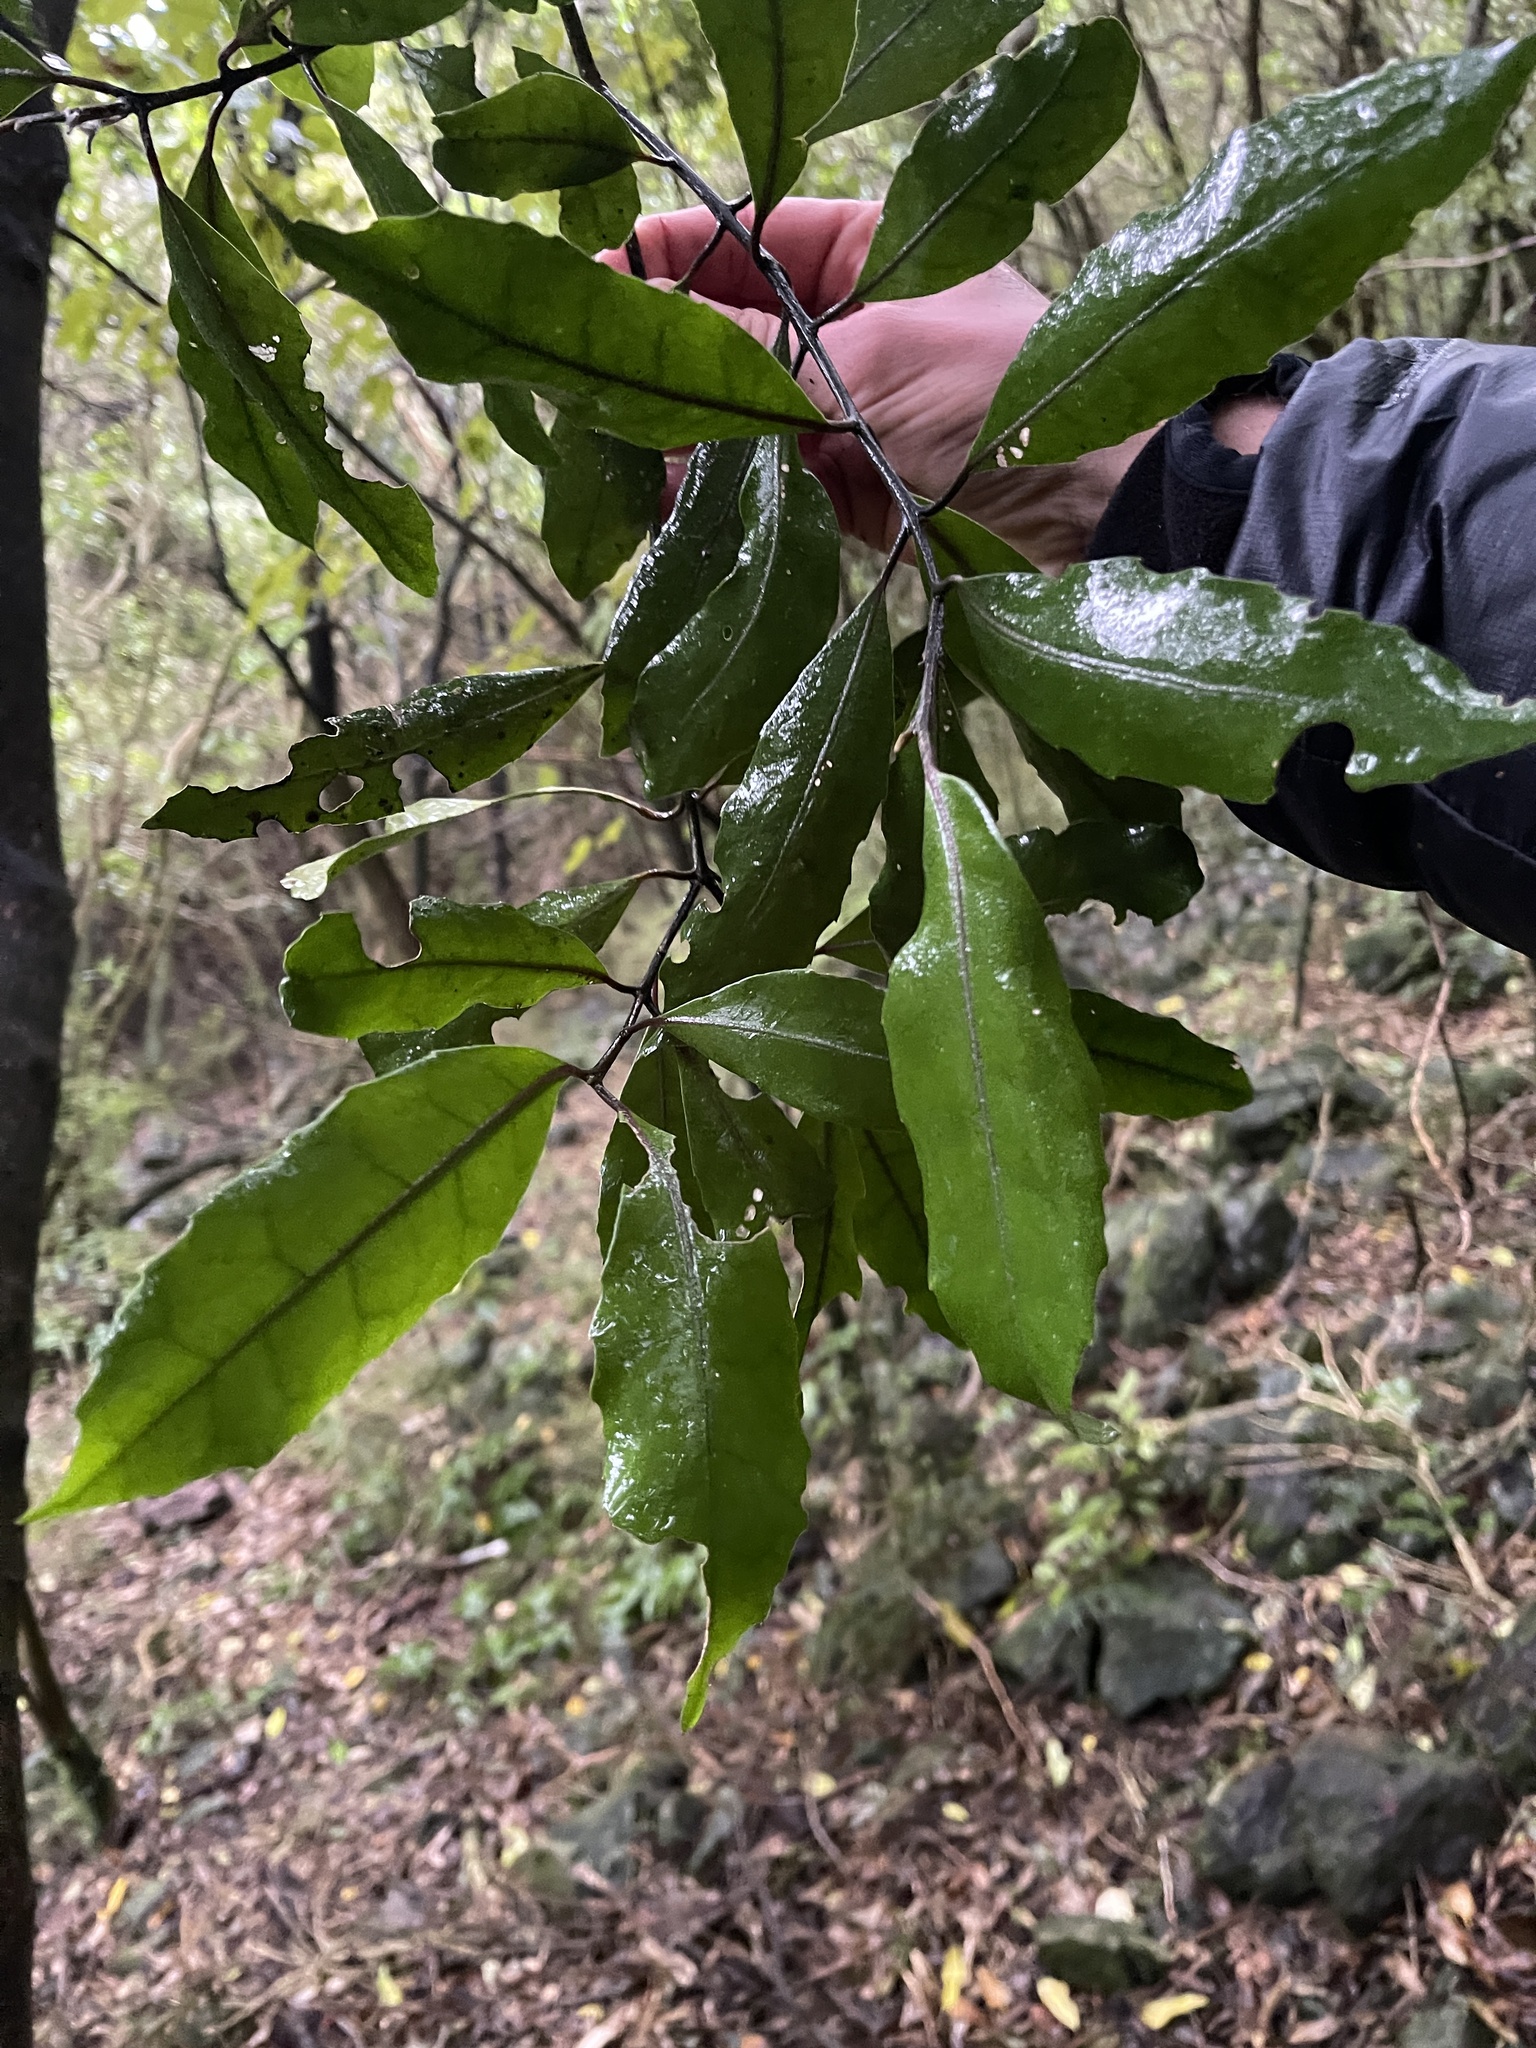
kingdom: Plantae
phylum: Tracheophyta
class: Magnoliopsida
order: Laurales
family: Monimiaceae
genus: Hedycarya
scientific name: Hedycarya arborea
